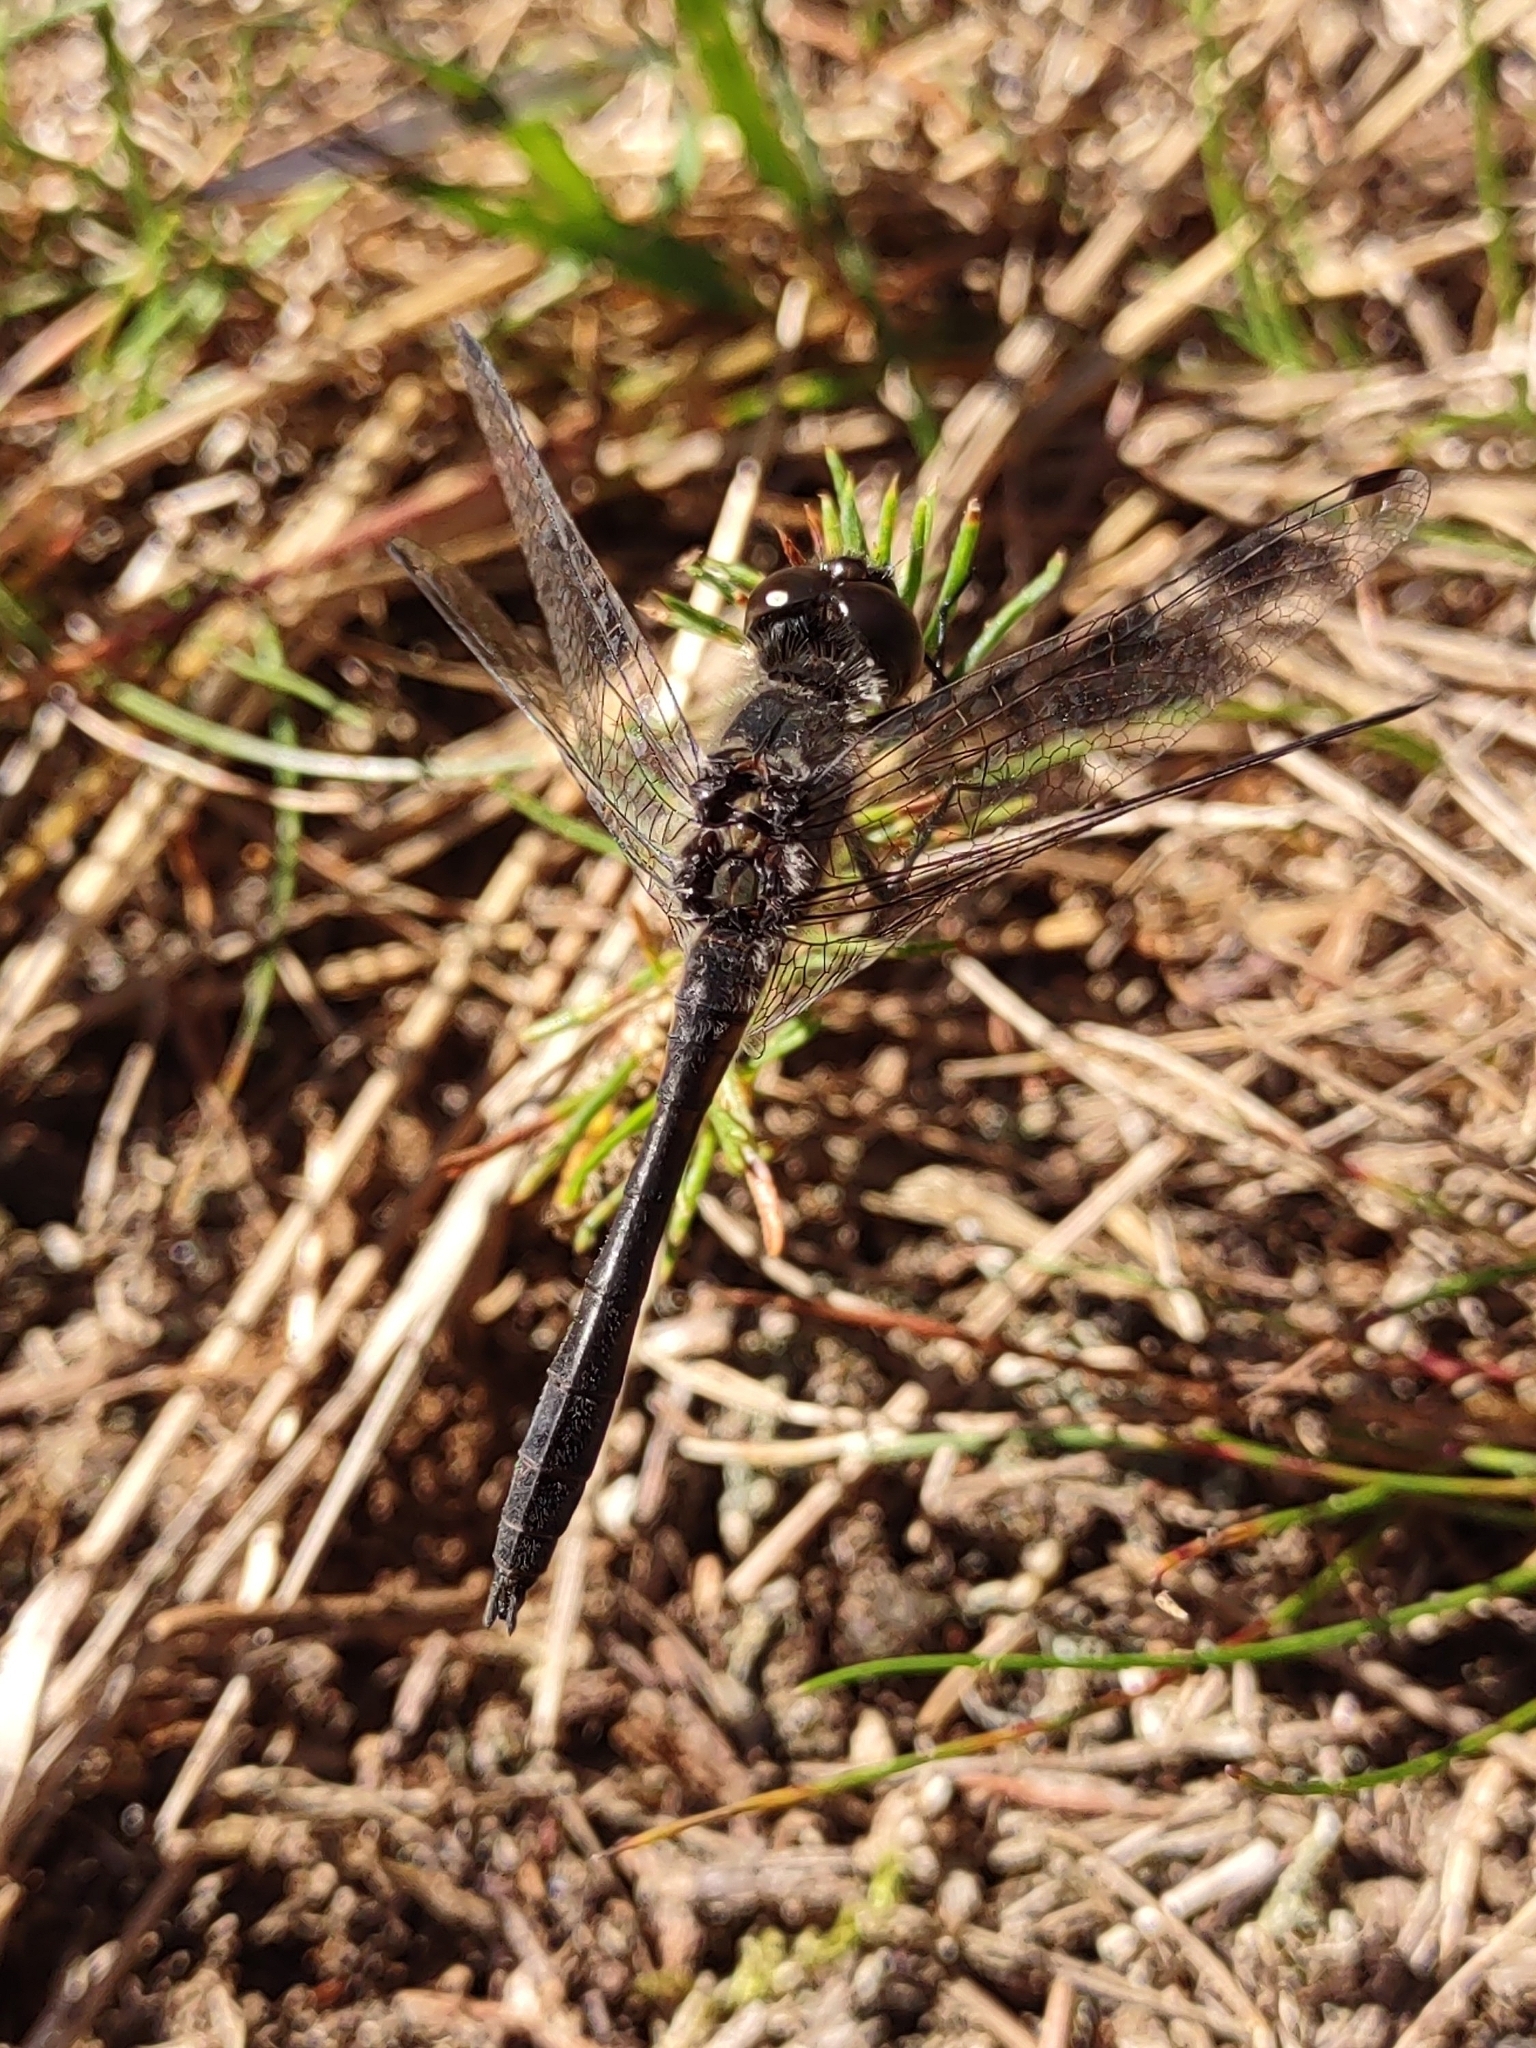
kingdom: Animalia
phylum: Arthropoda
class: Insecta
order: Odonata
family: Libellulidae
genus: Sympetrum
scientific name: Sympetrum danae
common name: Black darter
